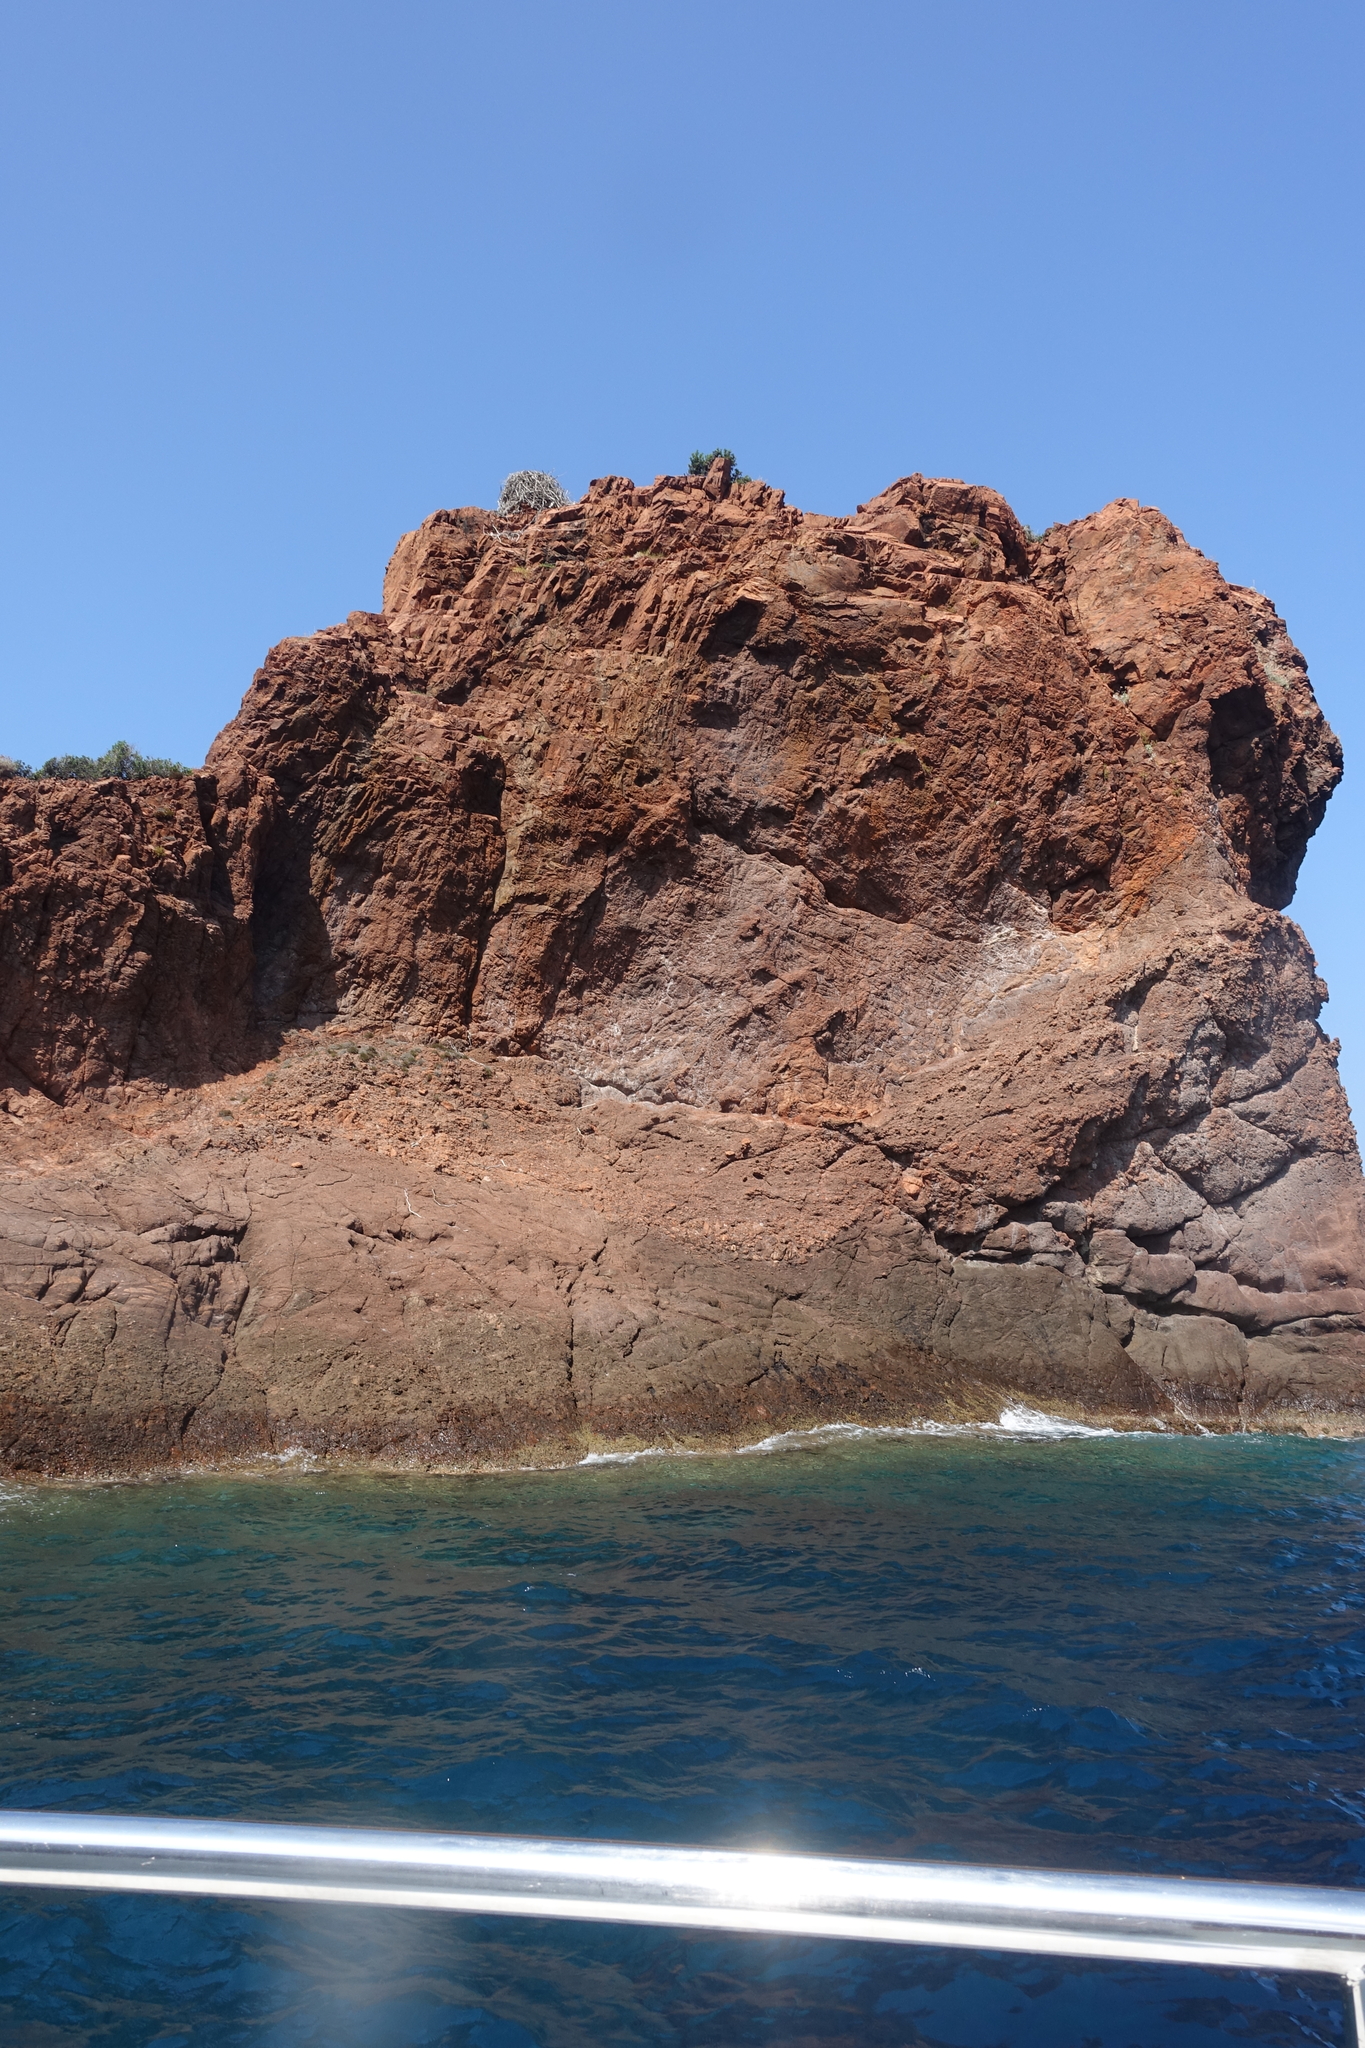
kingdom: Animalia
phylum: Chordata
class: Aves
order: Accipitriformes
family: Pandionidae
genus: Pandion
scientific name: Pandion haliaetus
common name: Osprey
